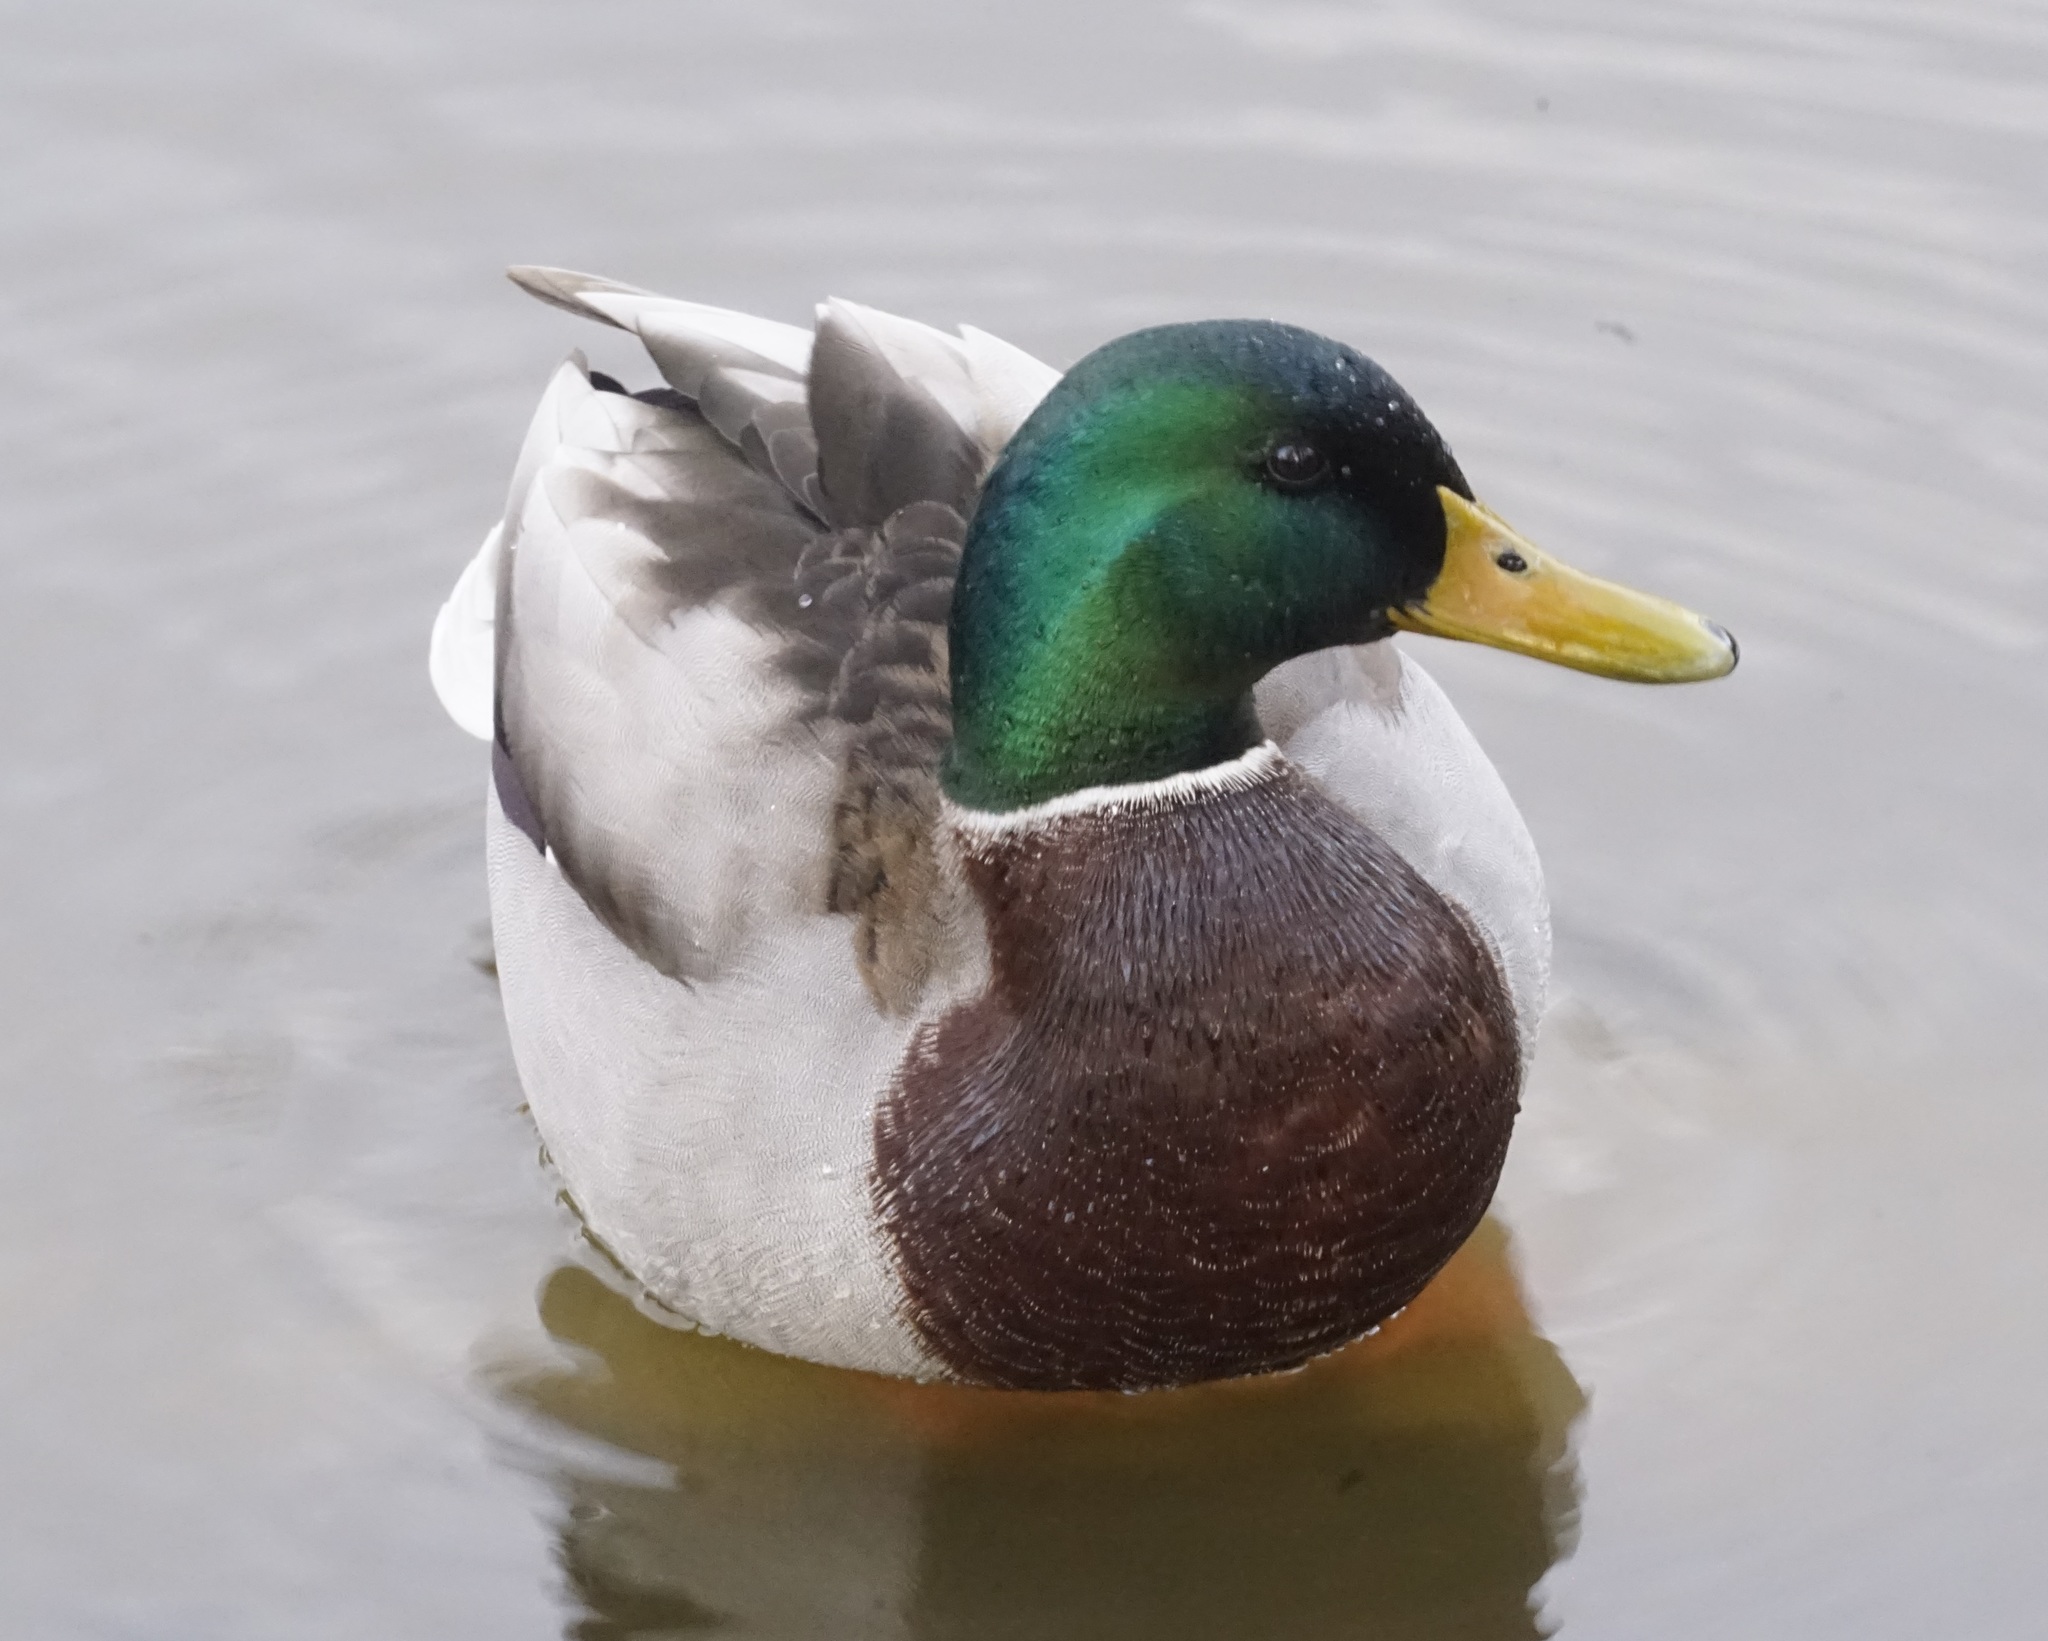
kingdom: Animalia
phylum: Chordata
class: Aves
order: Anseriformes
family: Anatidae
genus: Anas
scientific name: Anas platyrhynchos
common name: Mallard
